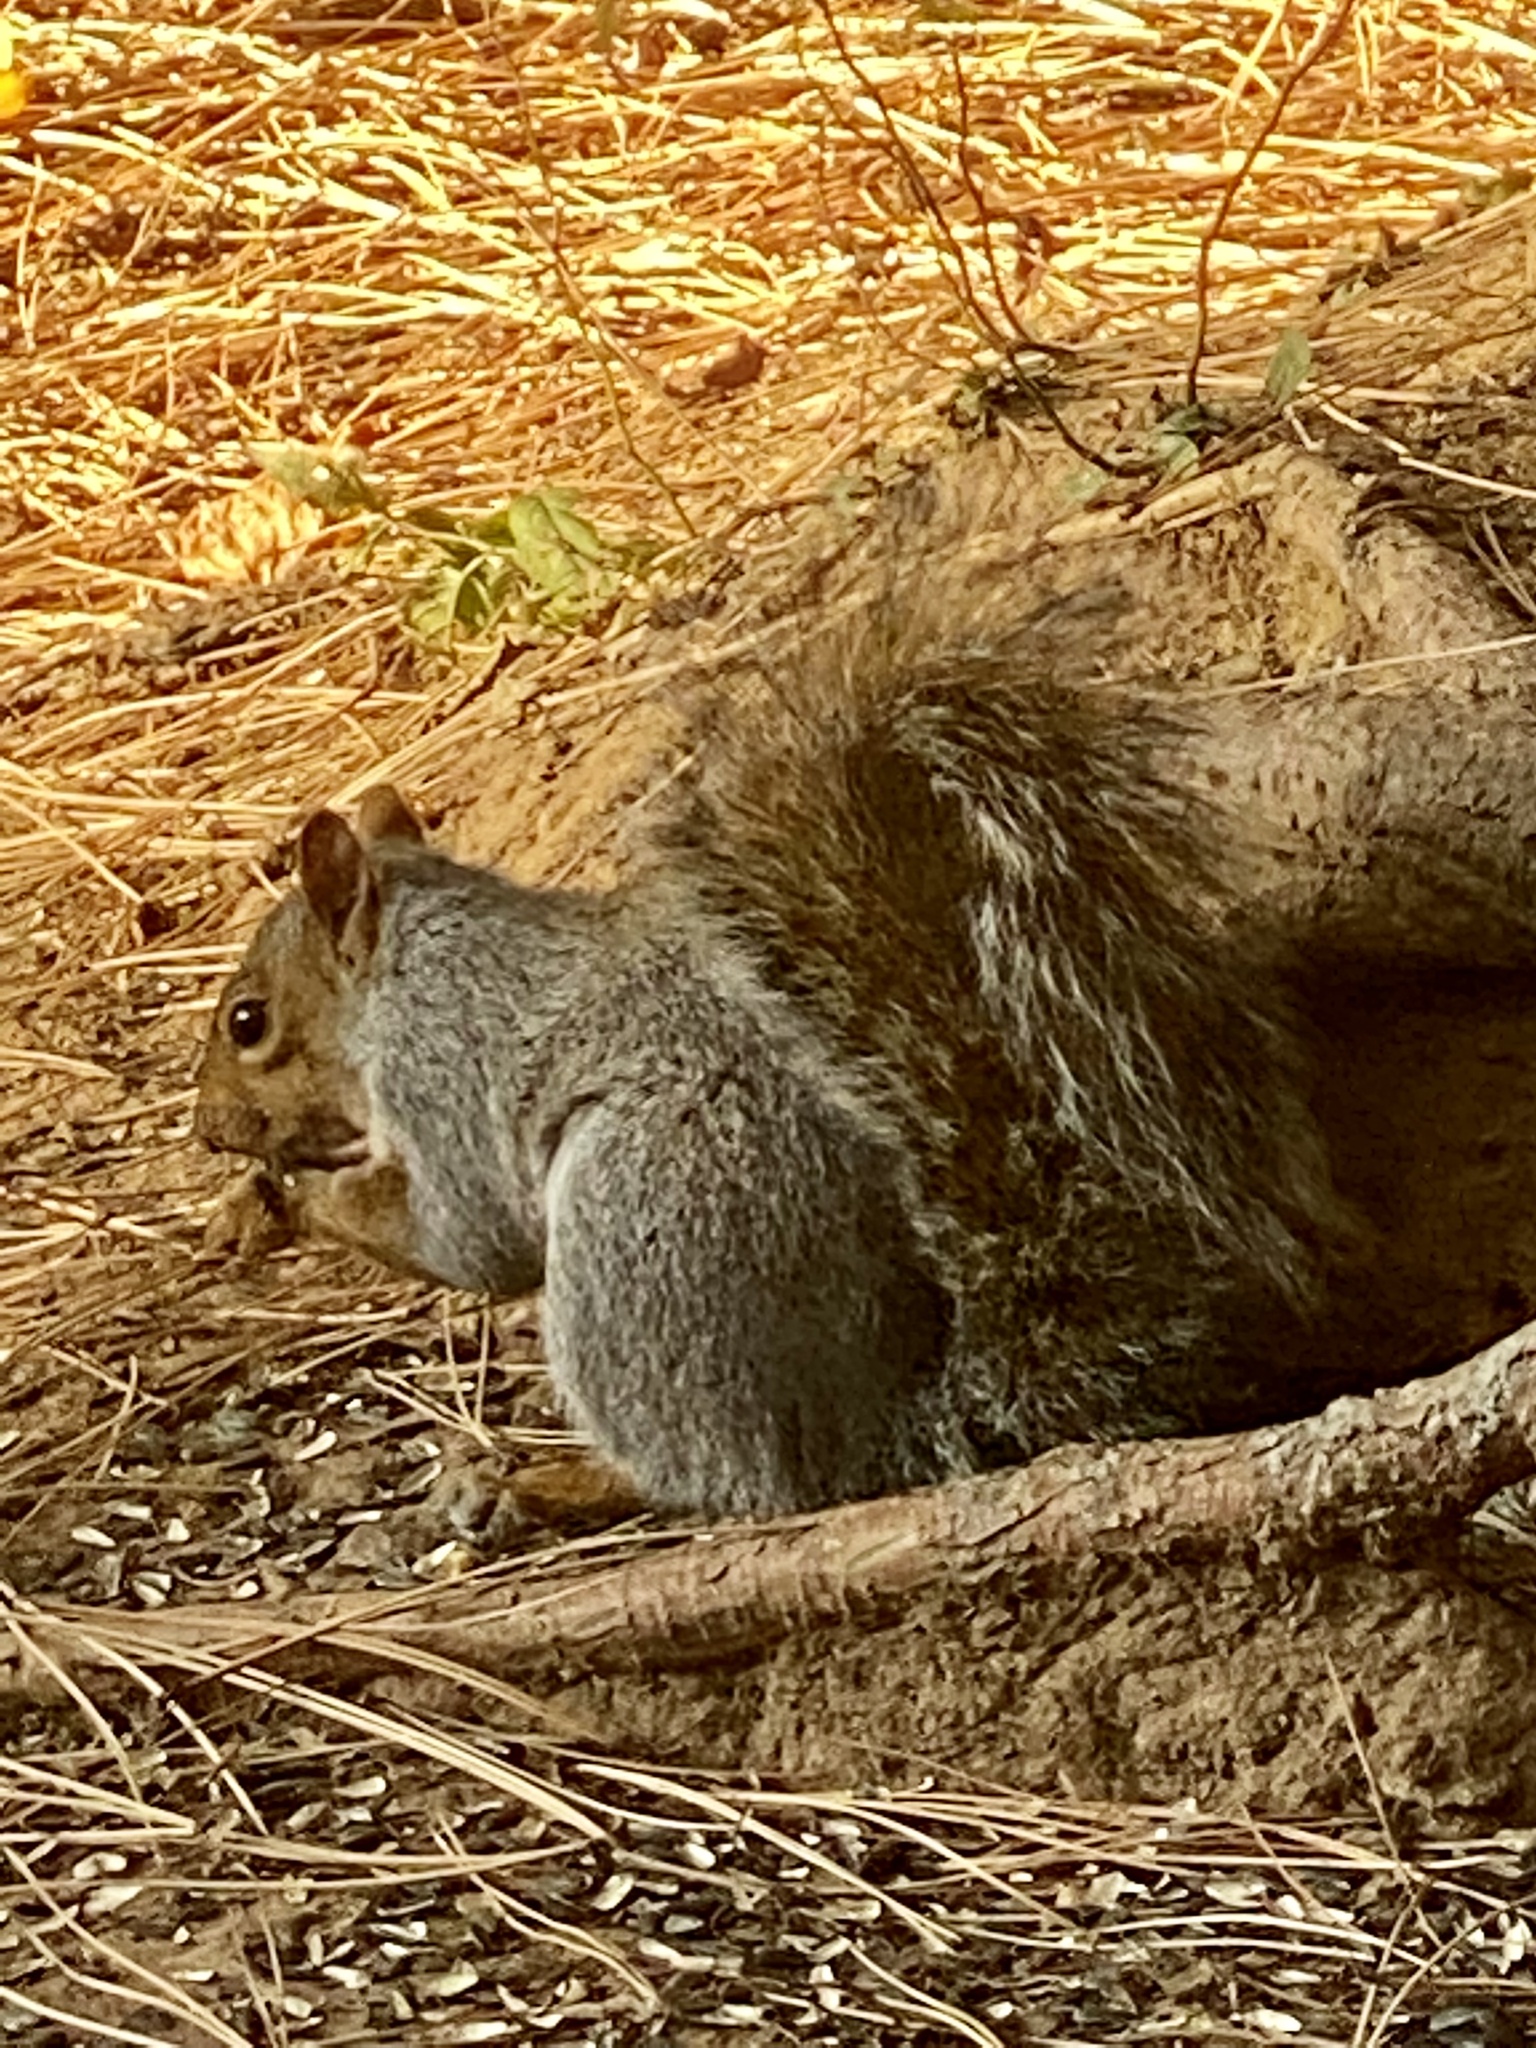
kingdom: Animalia
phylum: Chordata
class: Mammalia
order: Rodentia
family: Sciuridae
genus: Sciurus
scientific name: Sciurus carolinensis
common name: Eastern gray squirrel
